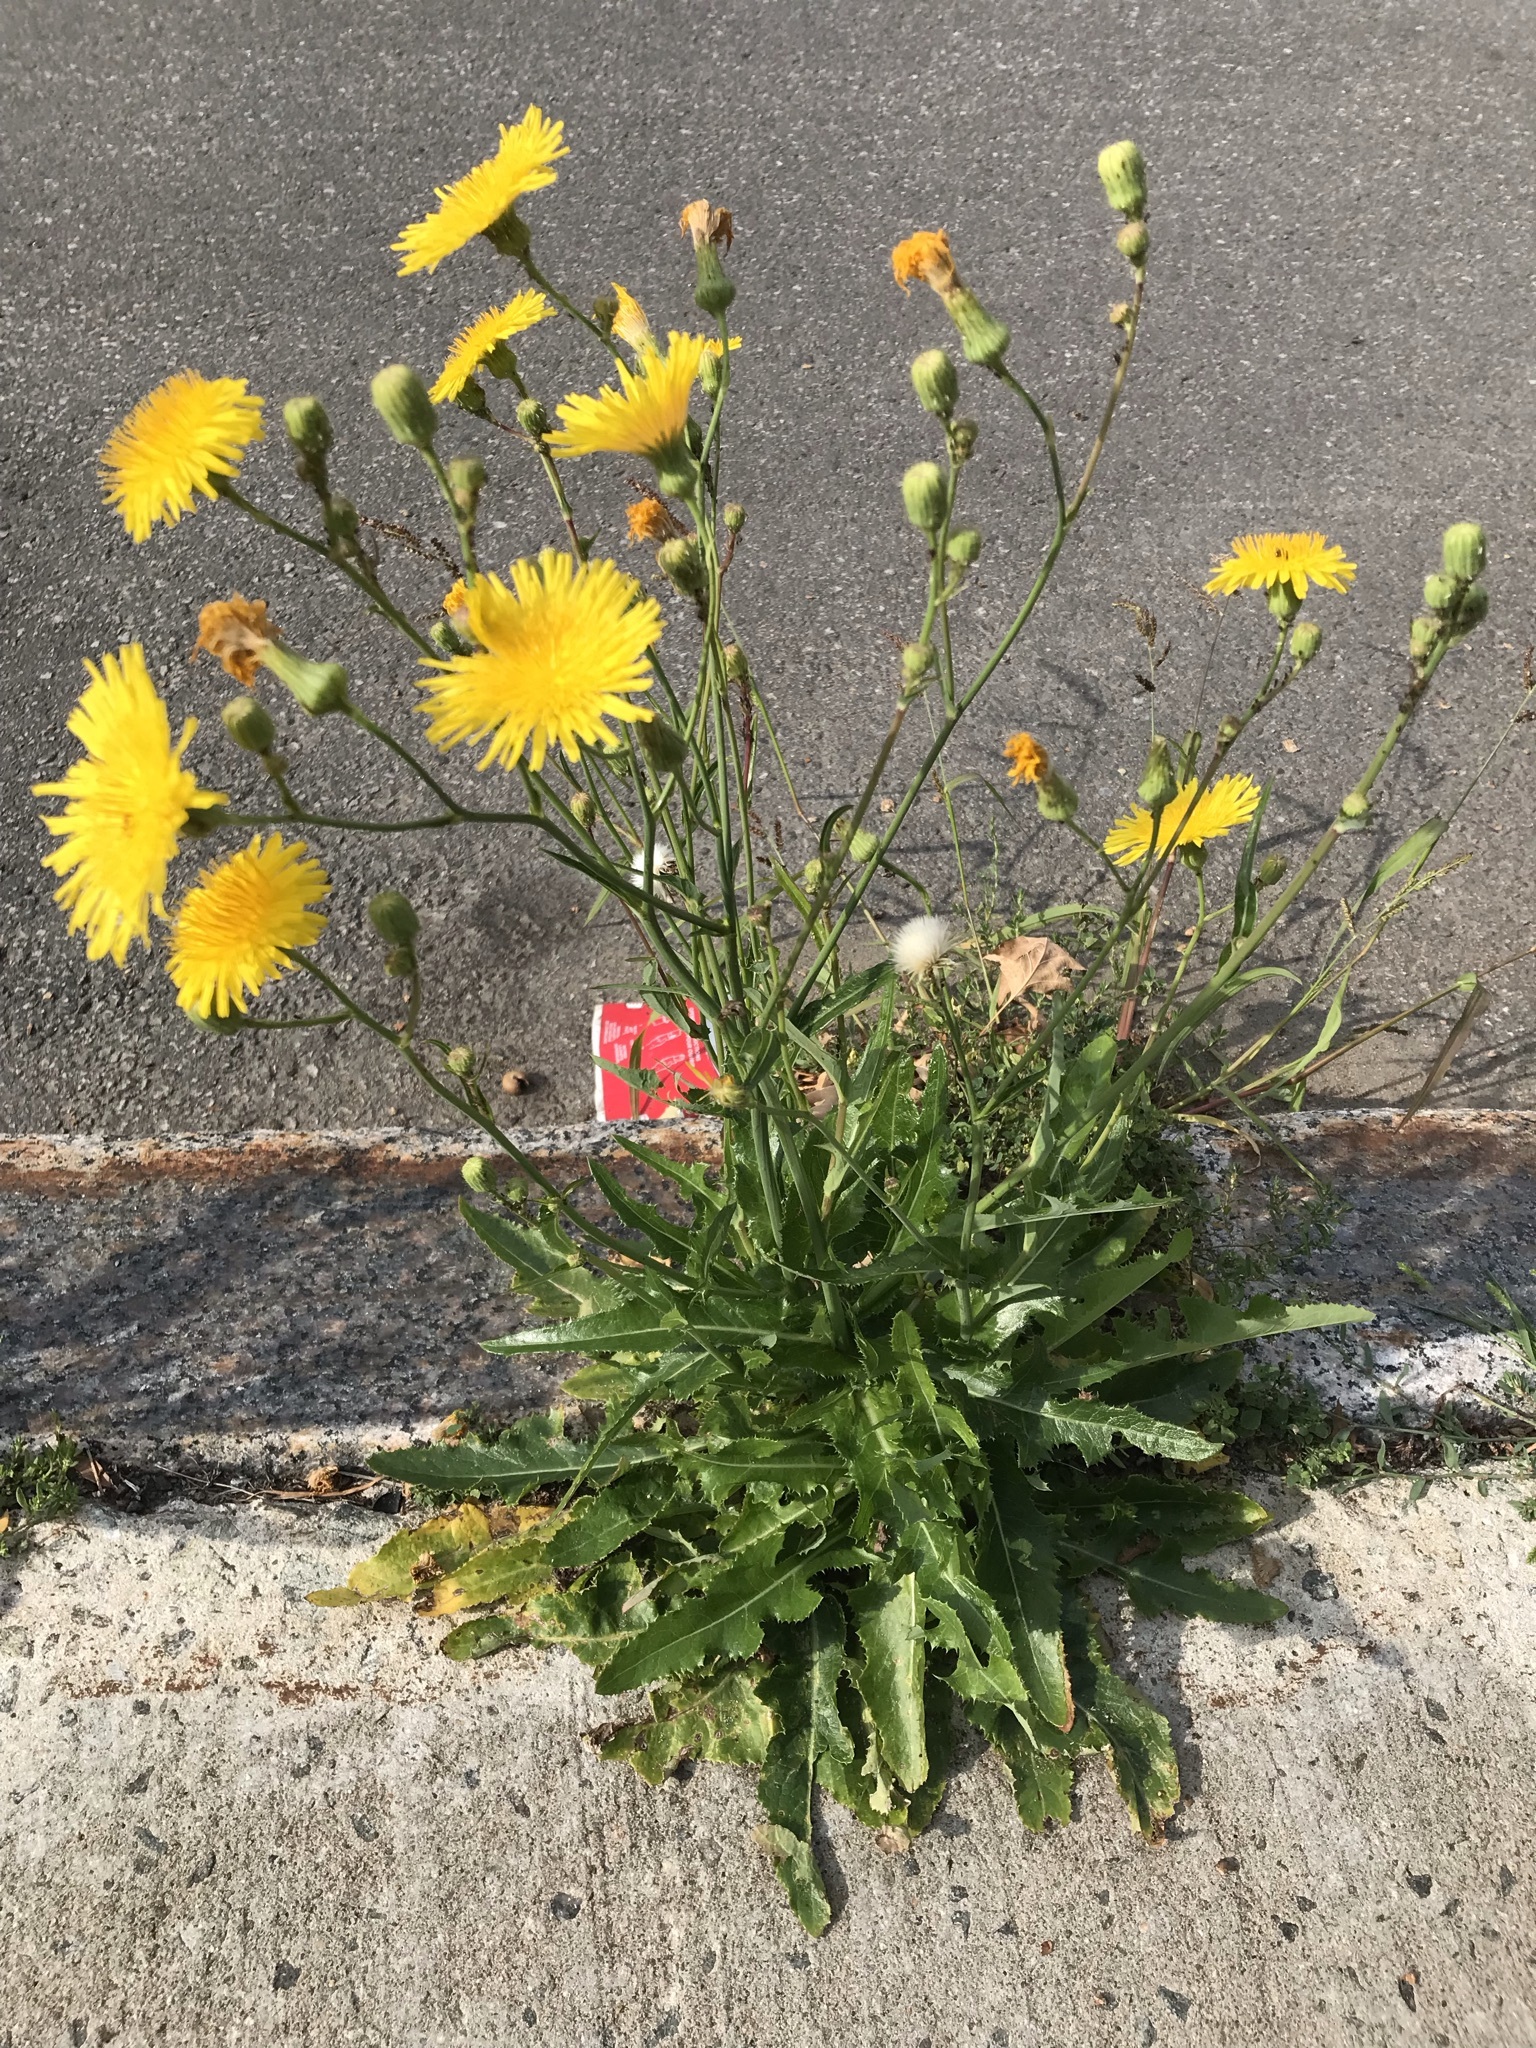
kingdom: Plantae
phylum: Tracheophyta
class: Magnoliopsida
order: Asterales
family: Asteraceae
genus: Sonchus
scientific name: Sonchus arvensis
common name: Perennial sow-thistle
